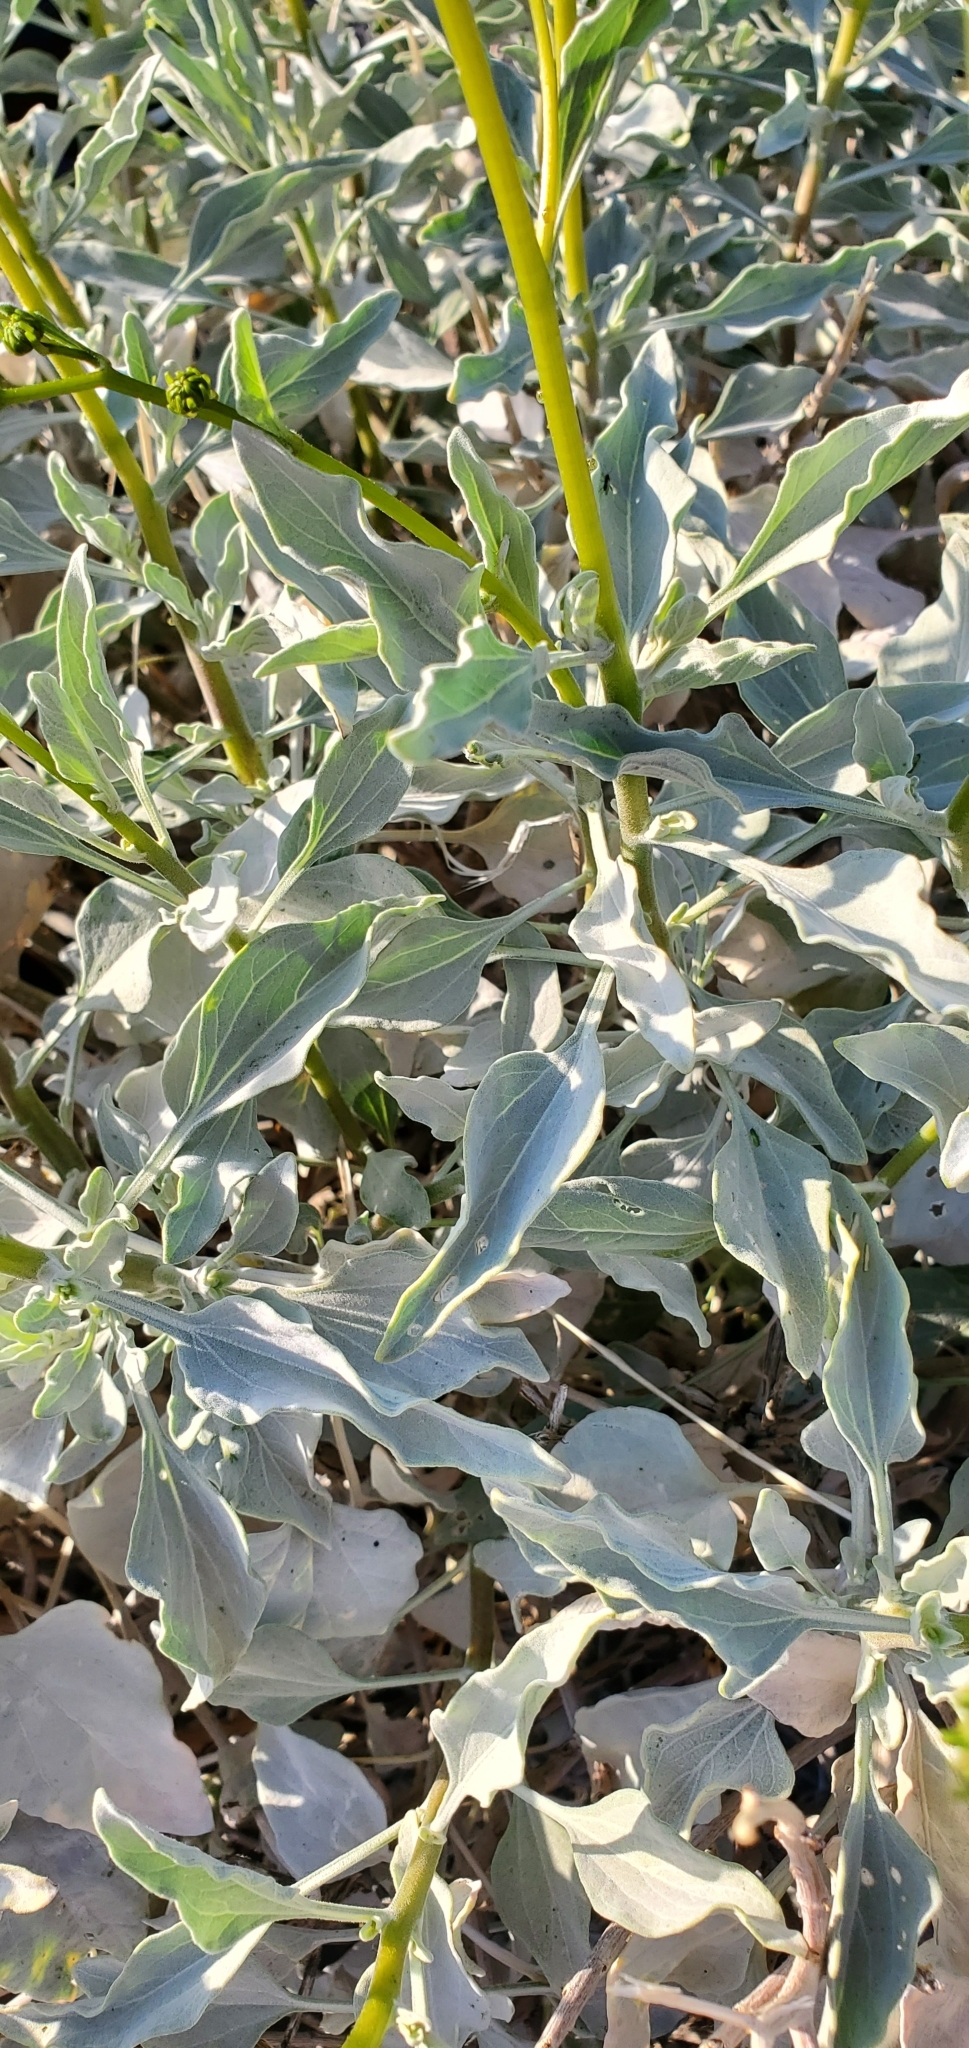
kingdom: Plantae
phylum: Tracheophyta
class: Magnoliopsida
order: Asterales
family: Asteraceae
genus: Encelia
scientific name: Encelia farinosa
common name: Brittlebush
